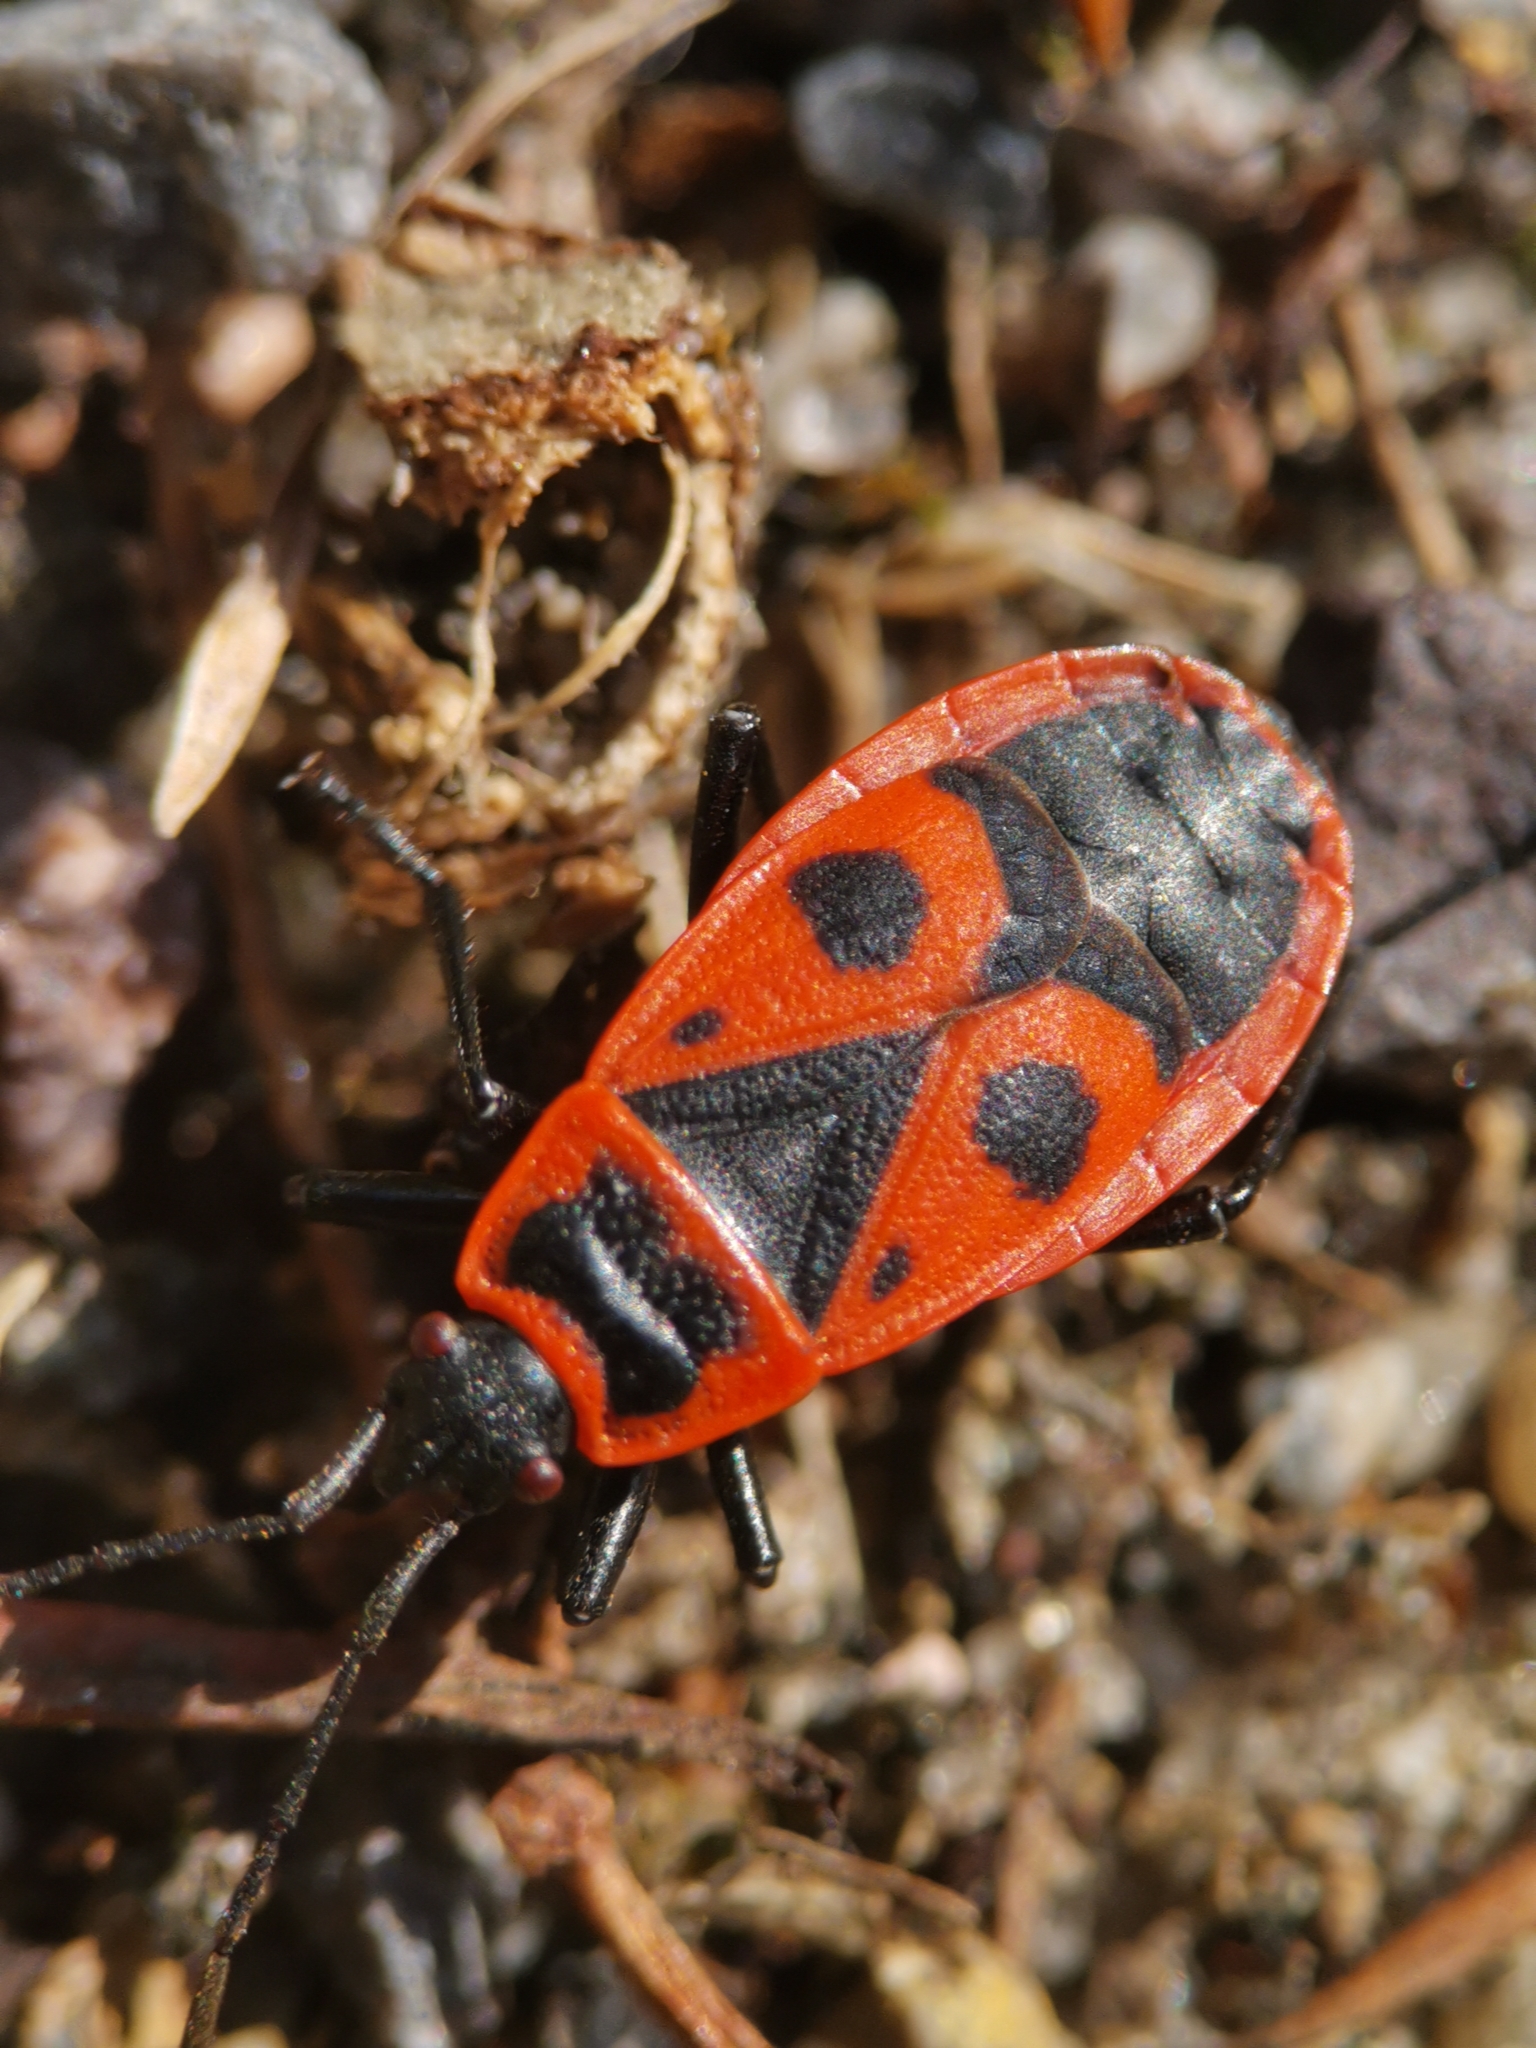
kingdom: Animalia
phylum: Arthropoda
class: Insecta
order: Hemiptera
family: Pyrrhocoridae
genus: Pyrrhocoris
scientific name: Pyrrhocoris apterus
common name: Firebug
